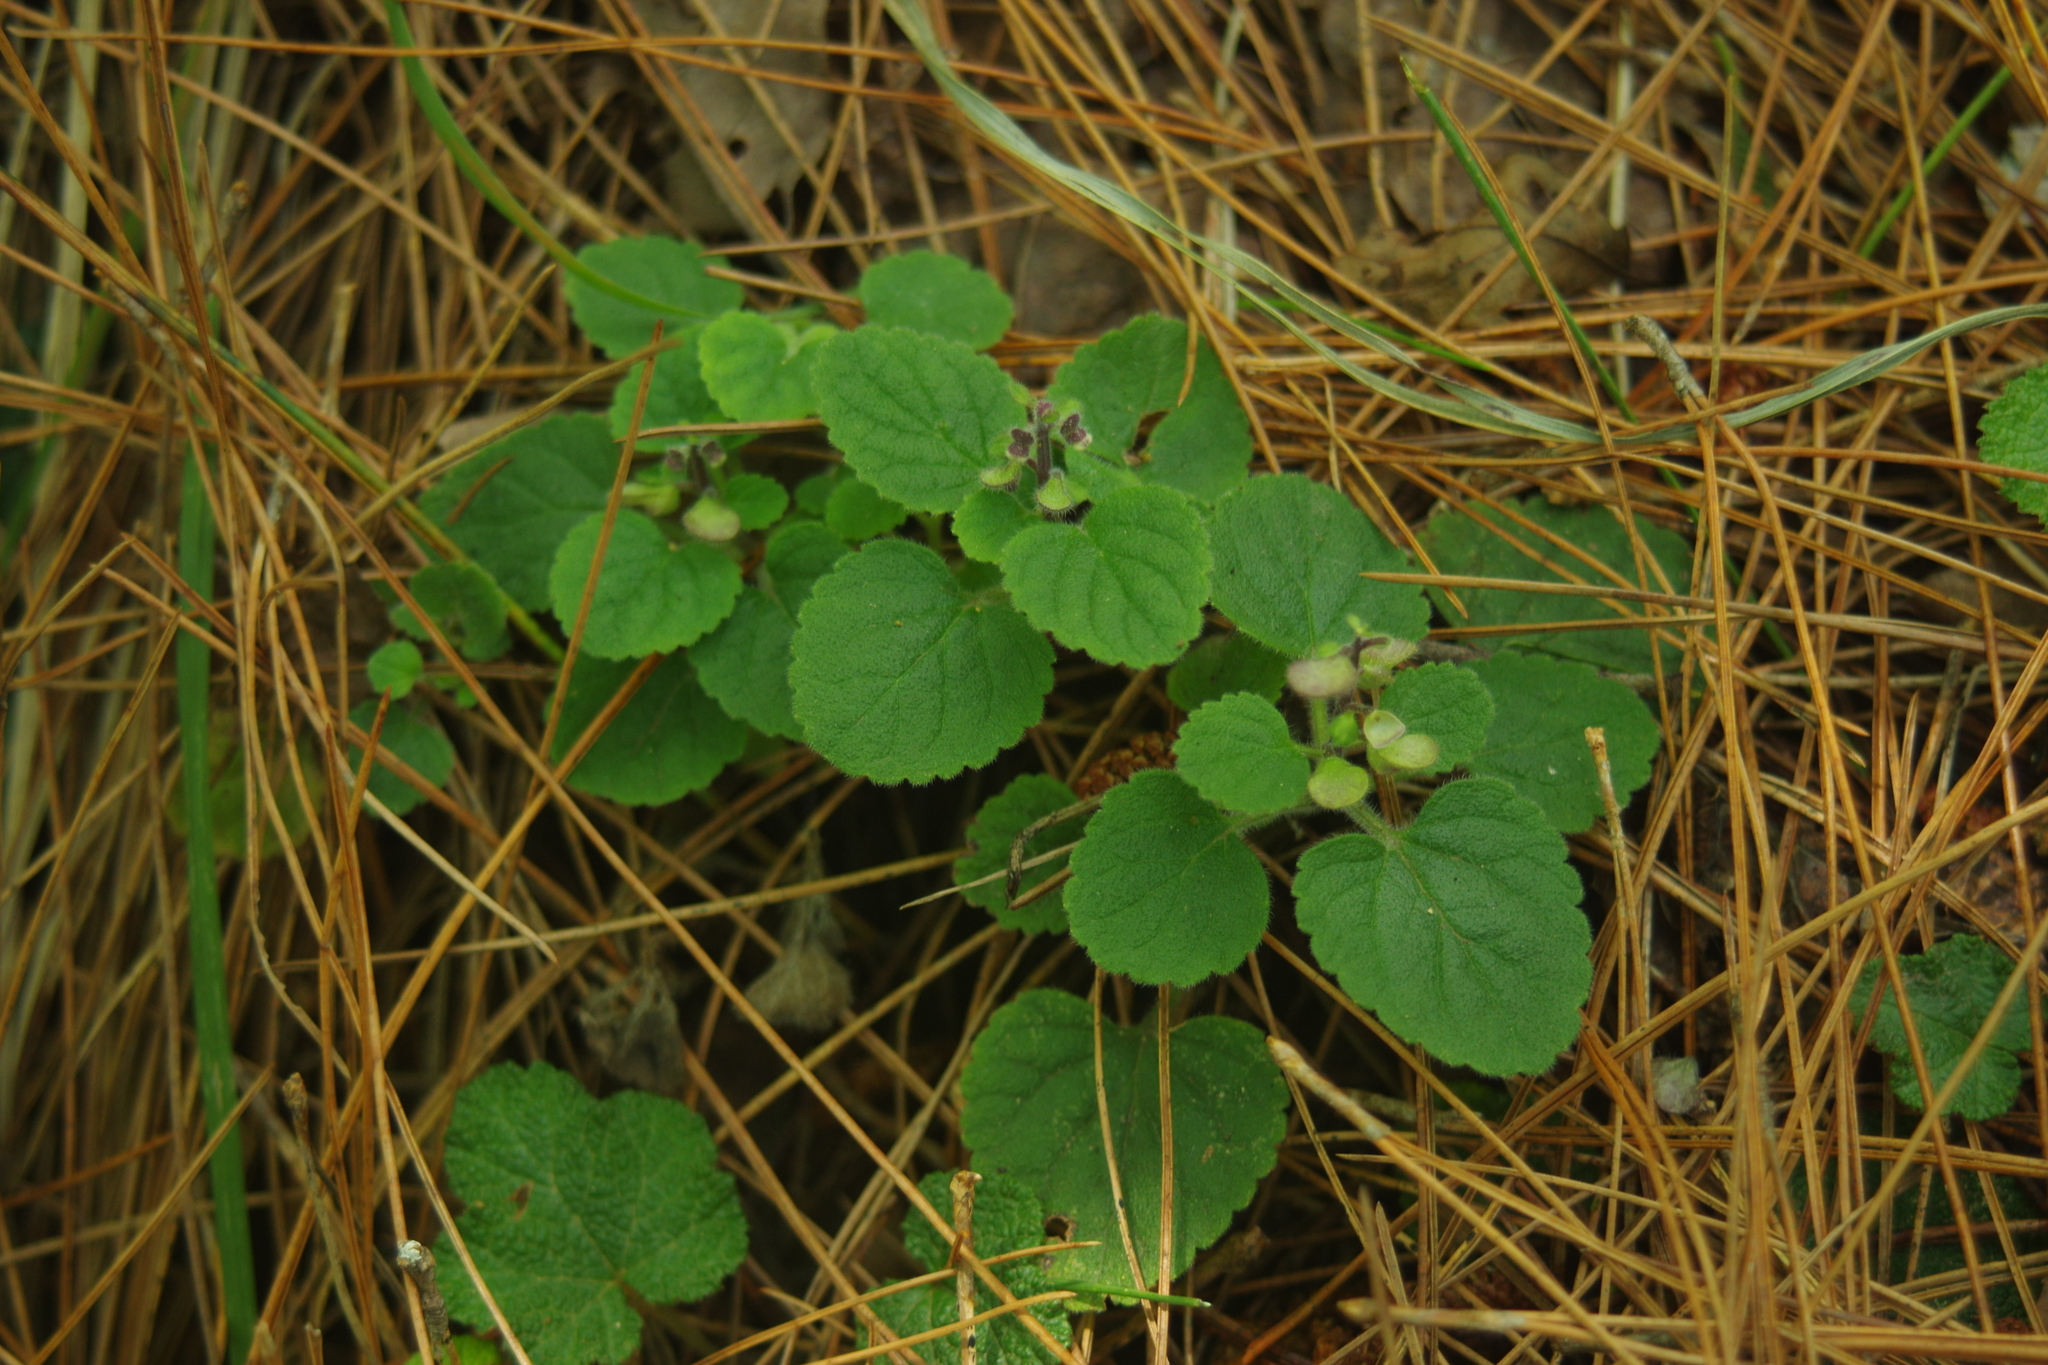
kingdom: Plantae
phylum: Tracheophyta
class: Magnoliopsida
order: Lamiales
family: Lamiaceae
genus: Scutellaria
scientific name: Scutellaria indica
